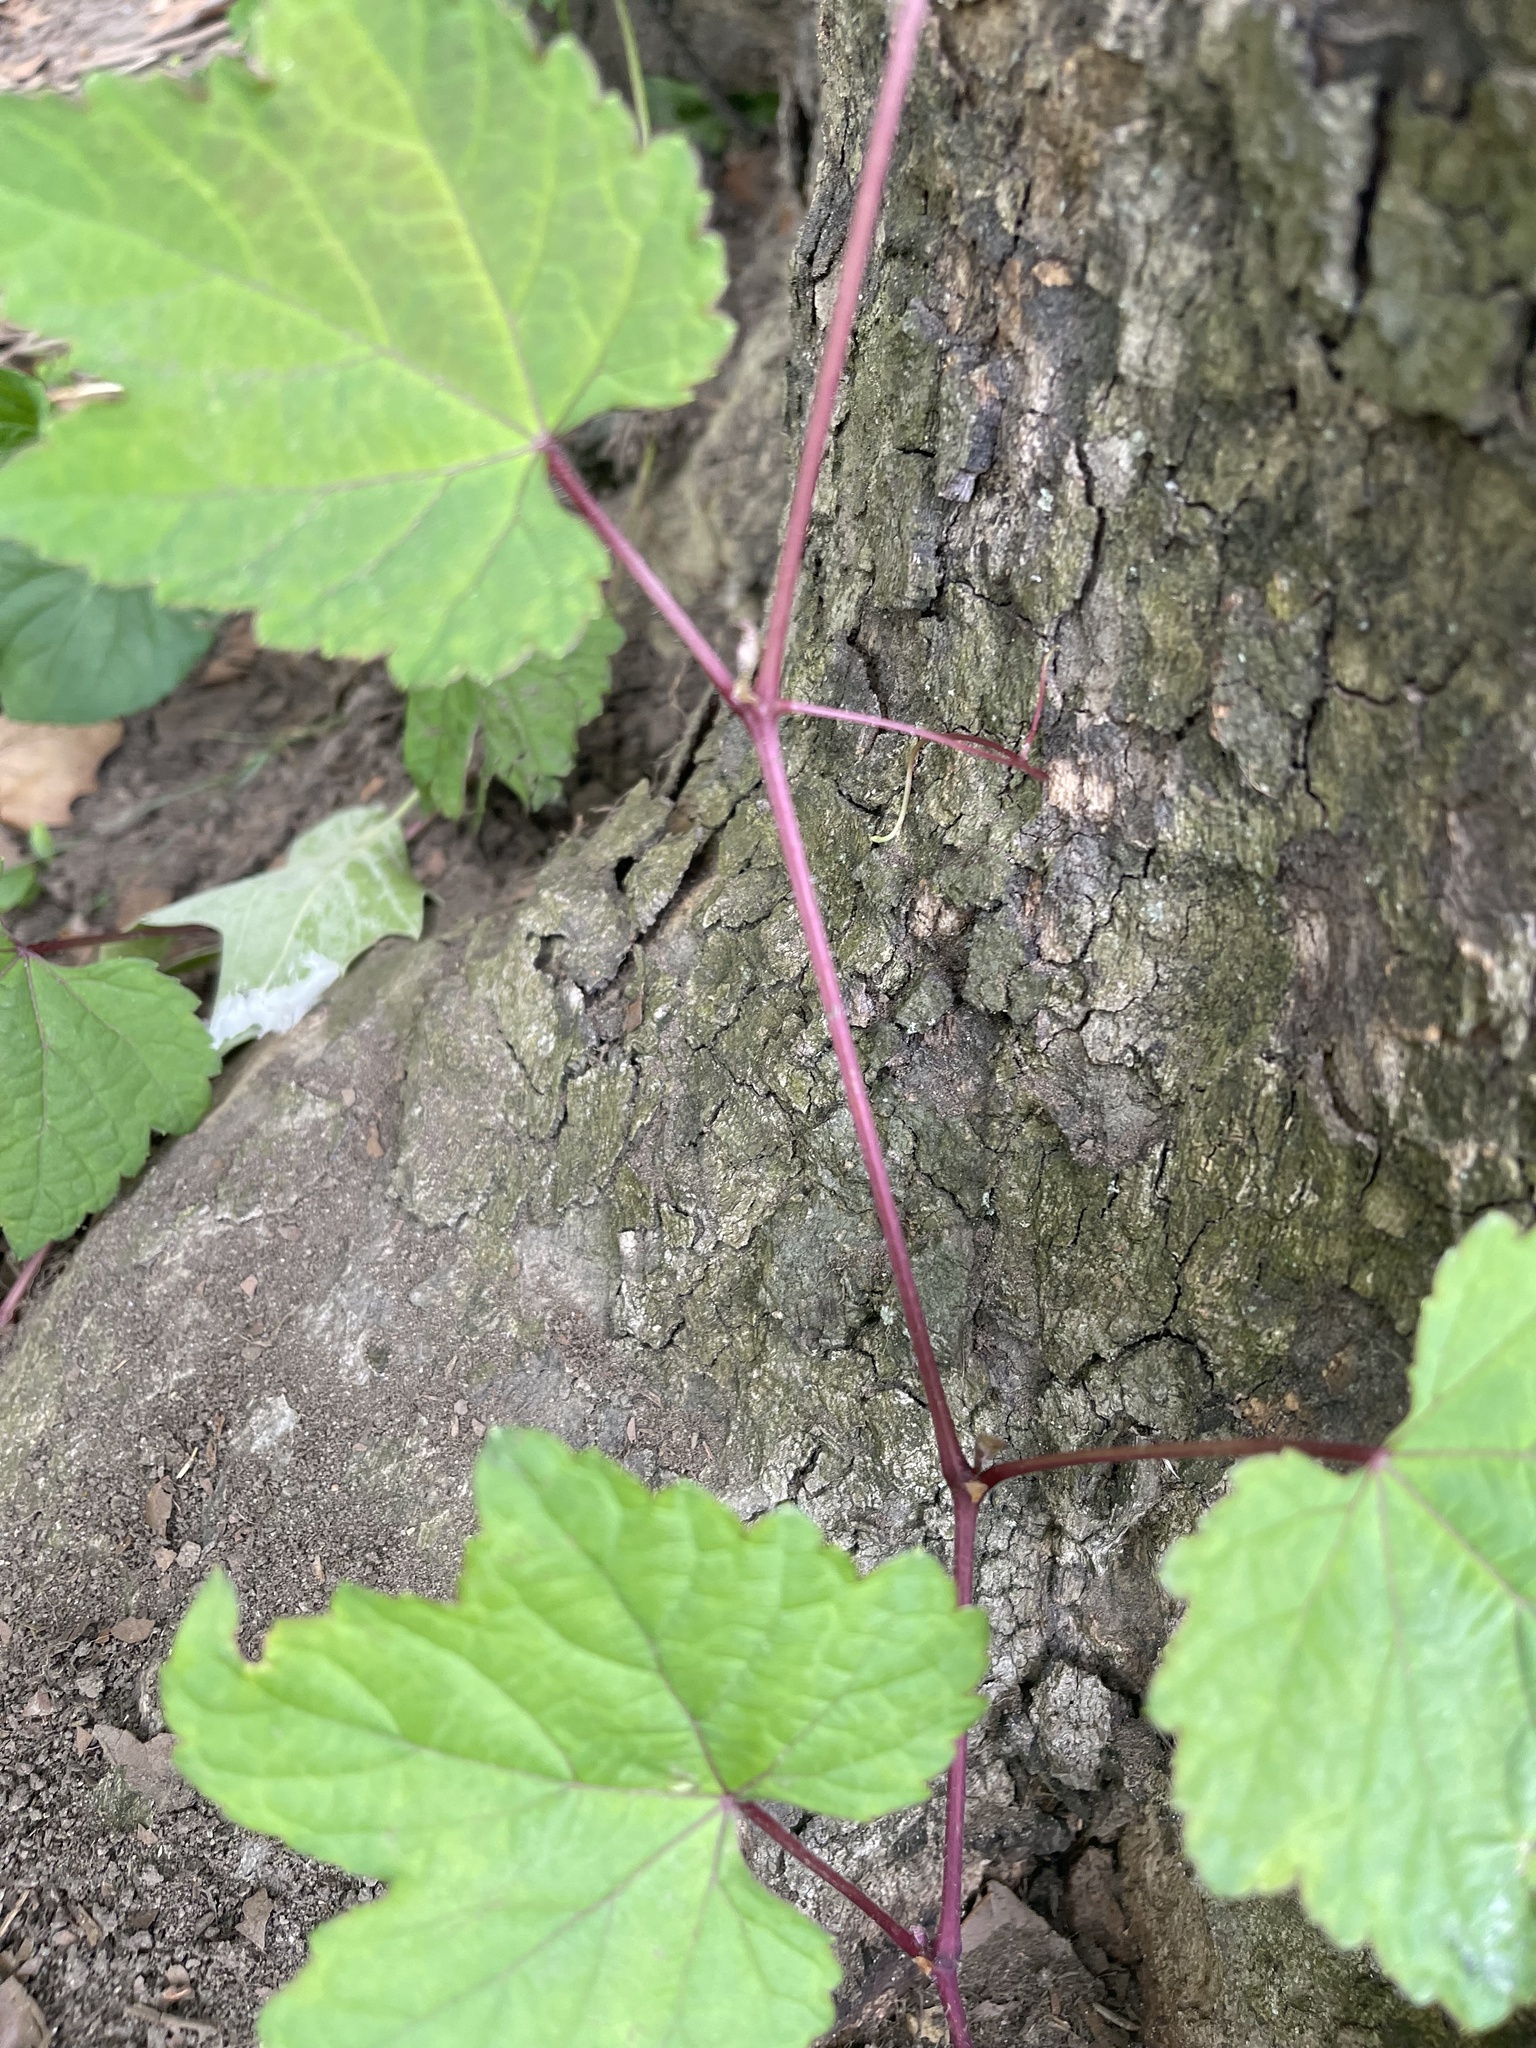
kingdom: Plantae
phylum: Tracheophyta
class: Magnoliopsida
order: Vitales
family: Vitaceae
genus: Ampelopsis
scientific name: Ampelopsis glandulosa
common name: Amur peppervine
